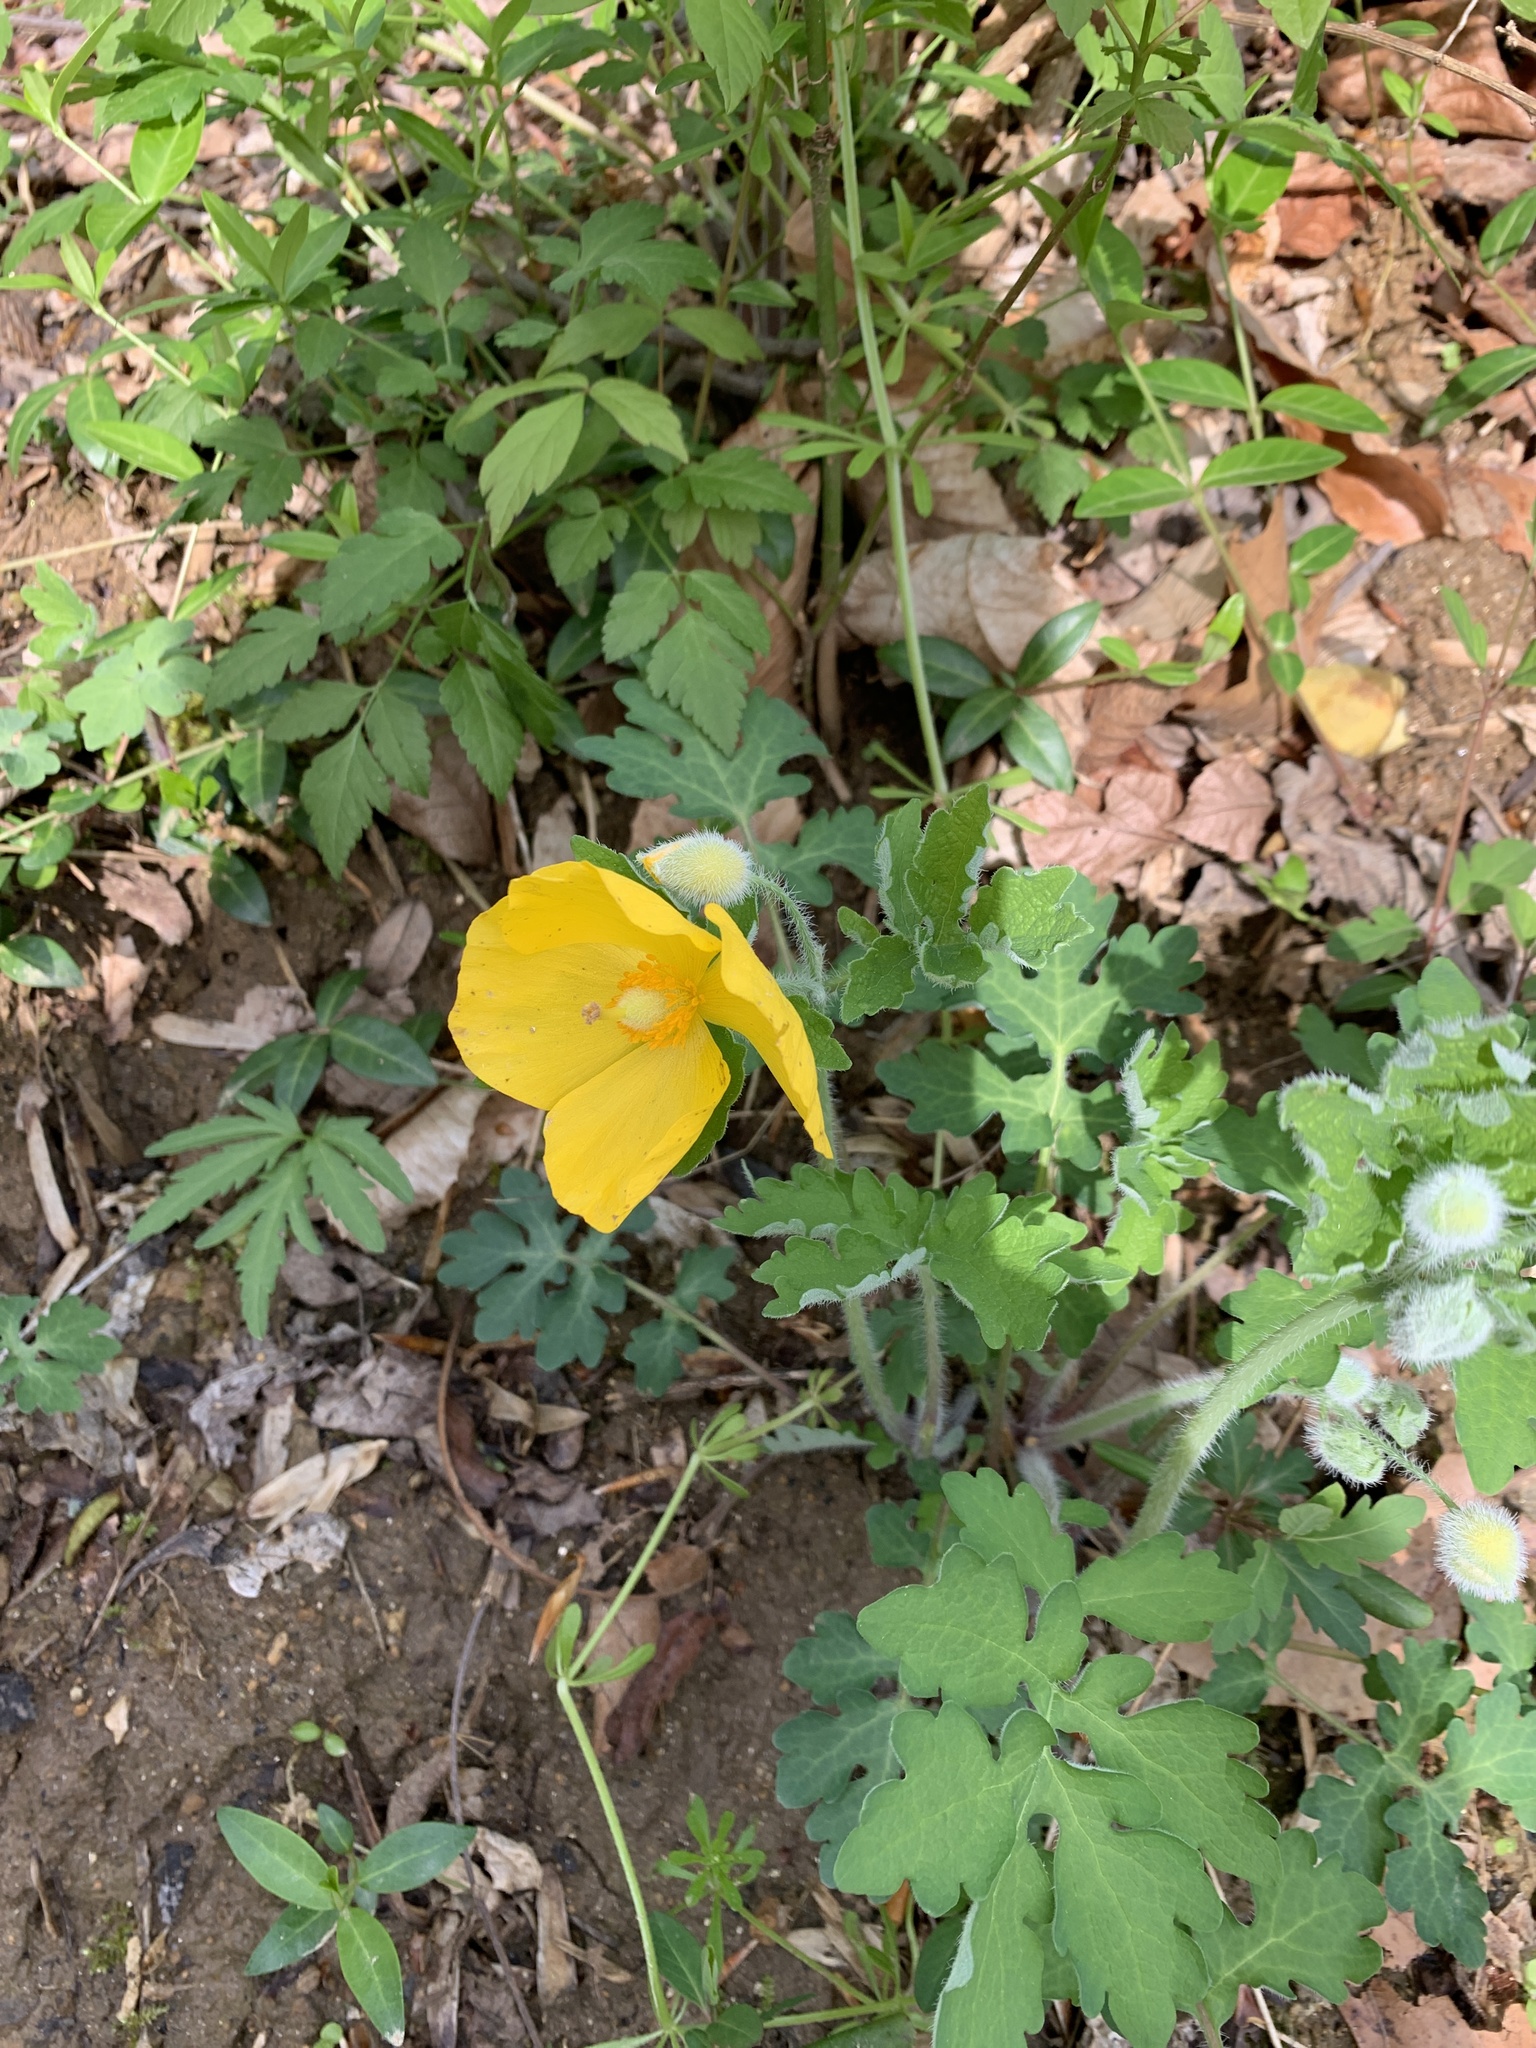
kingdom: Plantae
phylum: Tracheophyta
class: Magnoliopsida
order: Ranunculales
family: Papaveraceae
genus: Stylophorum
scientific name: Stylophorum diphyllum
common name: Celandine poppy
